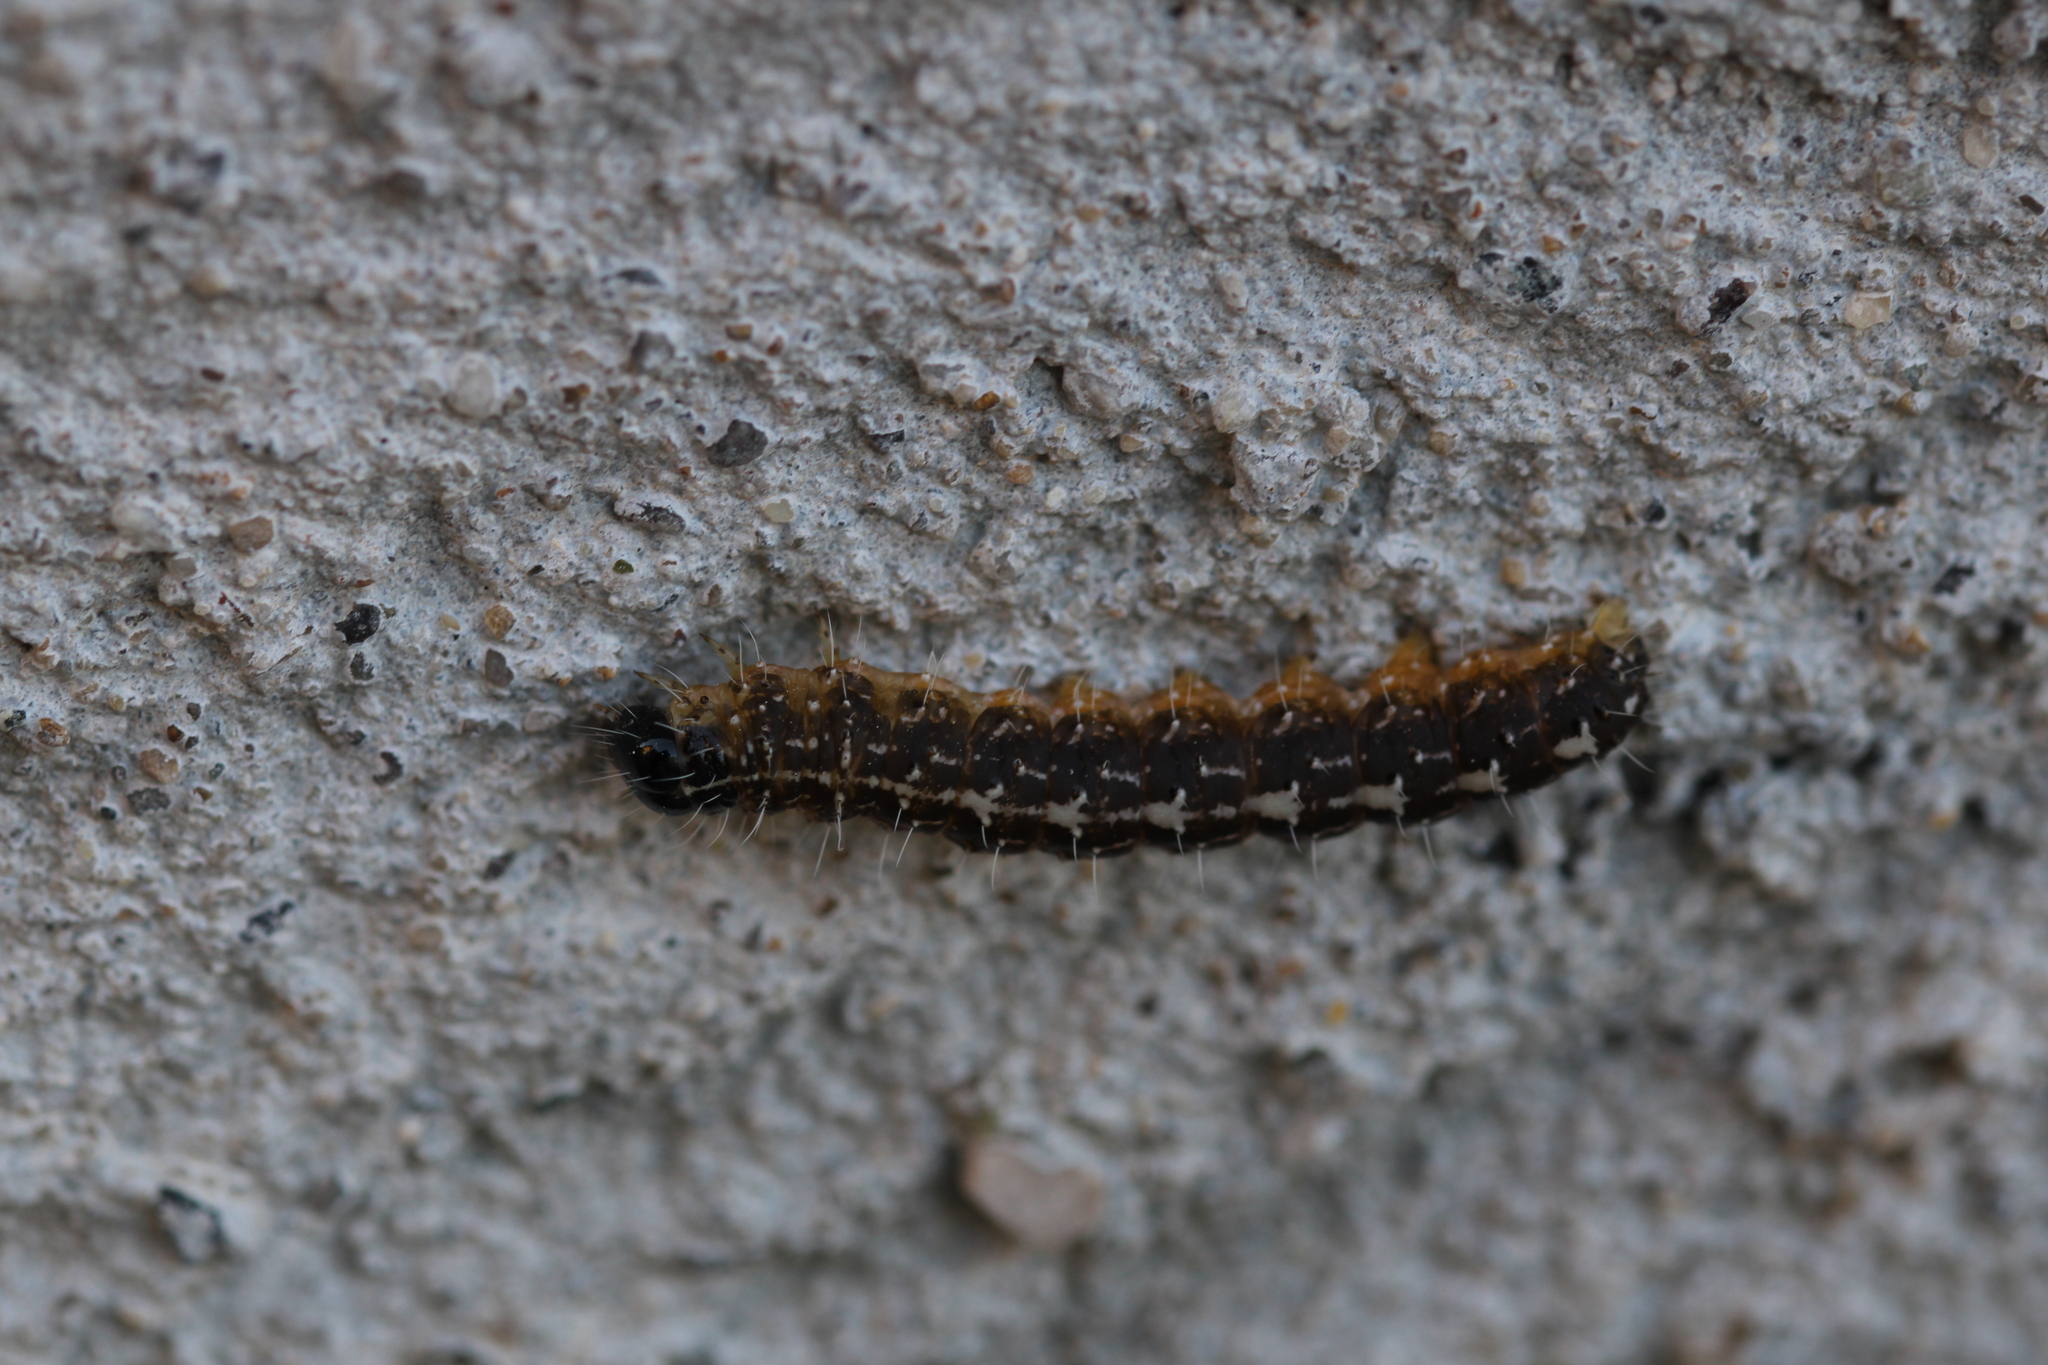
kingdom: Animalia
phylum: Arthropoda
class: Insecta
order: Lepidoptera
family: Noctuidae
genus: Nyctobrya
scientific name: Nyctobrya muralis
